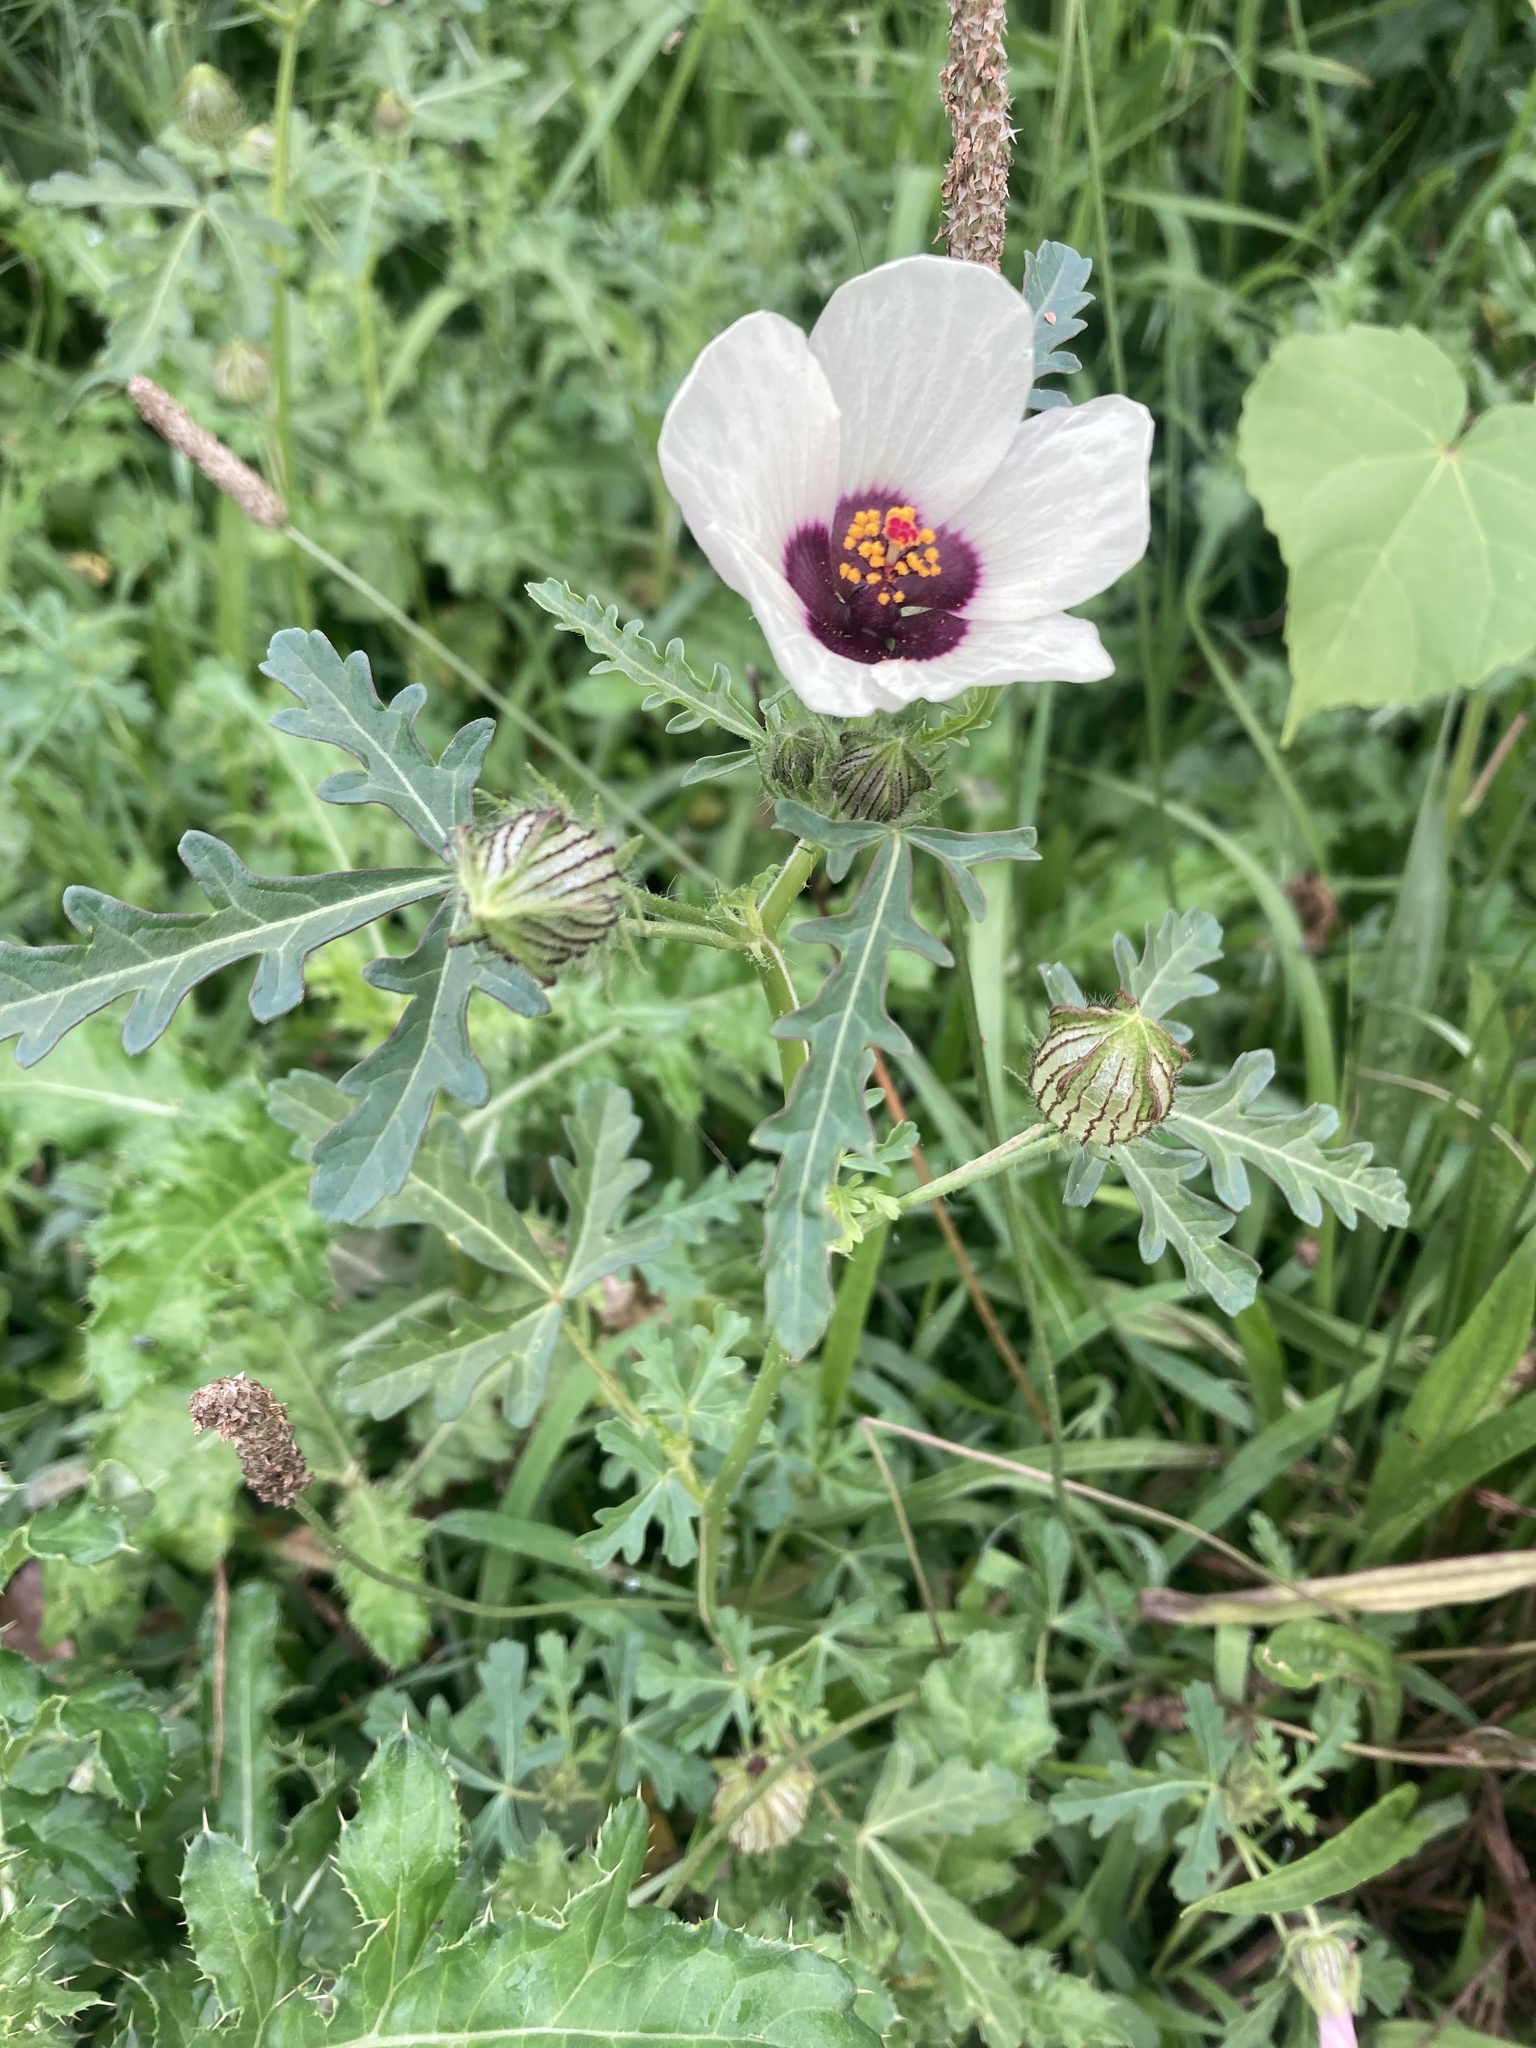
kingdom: Plantae
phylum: Tracheophyta
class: Magnoliopsida
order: Malvales
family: Malvaceae
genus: Hibiscus
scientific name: Hibiscus trionum
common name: Bladder ketmia
